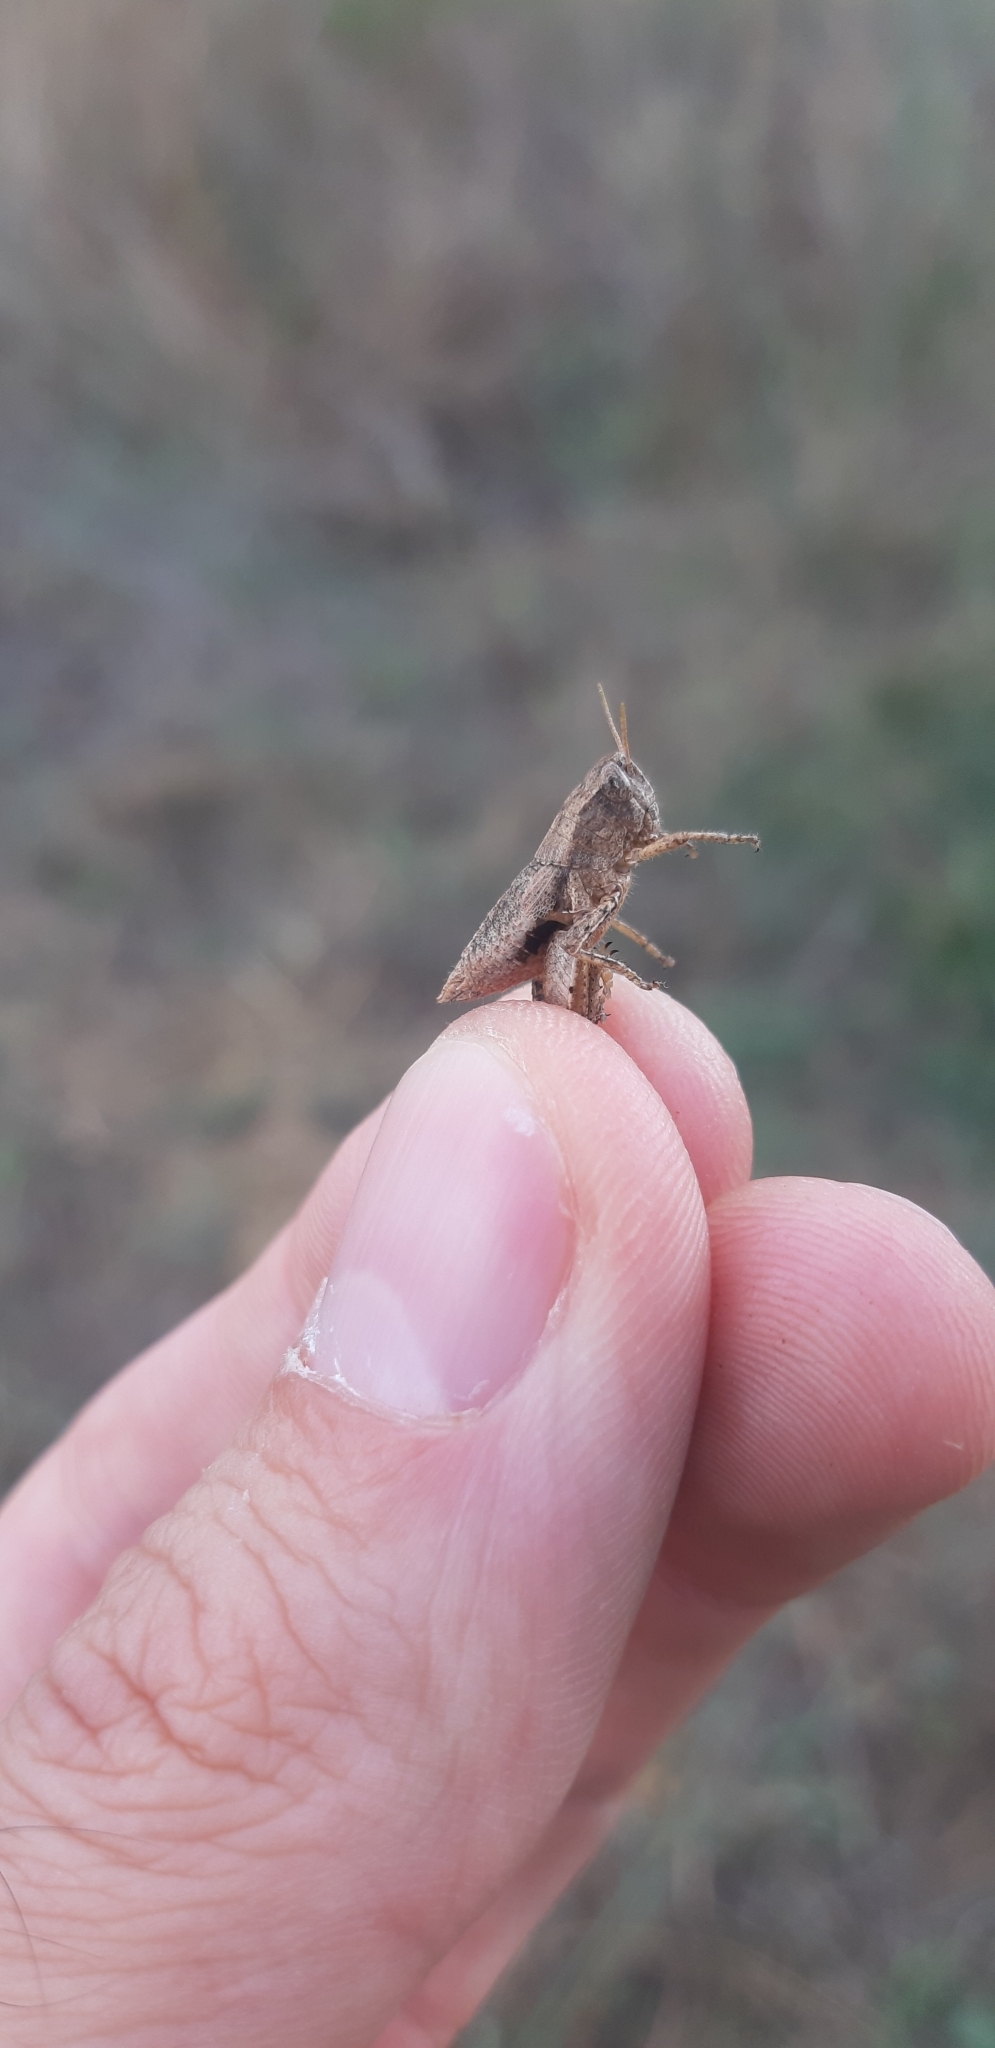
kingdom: Animalia
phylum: Arthropoda
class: Insecta
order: Orthoptera
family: Acrididae
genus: Pezotettix
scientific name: Pezotettix giornae
